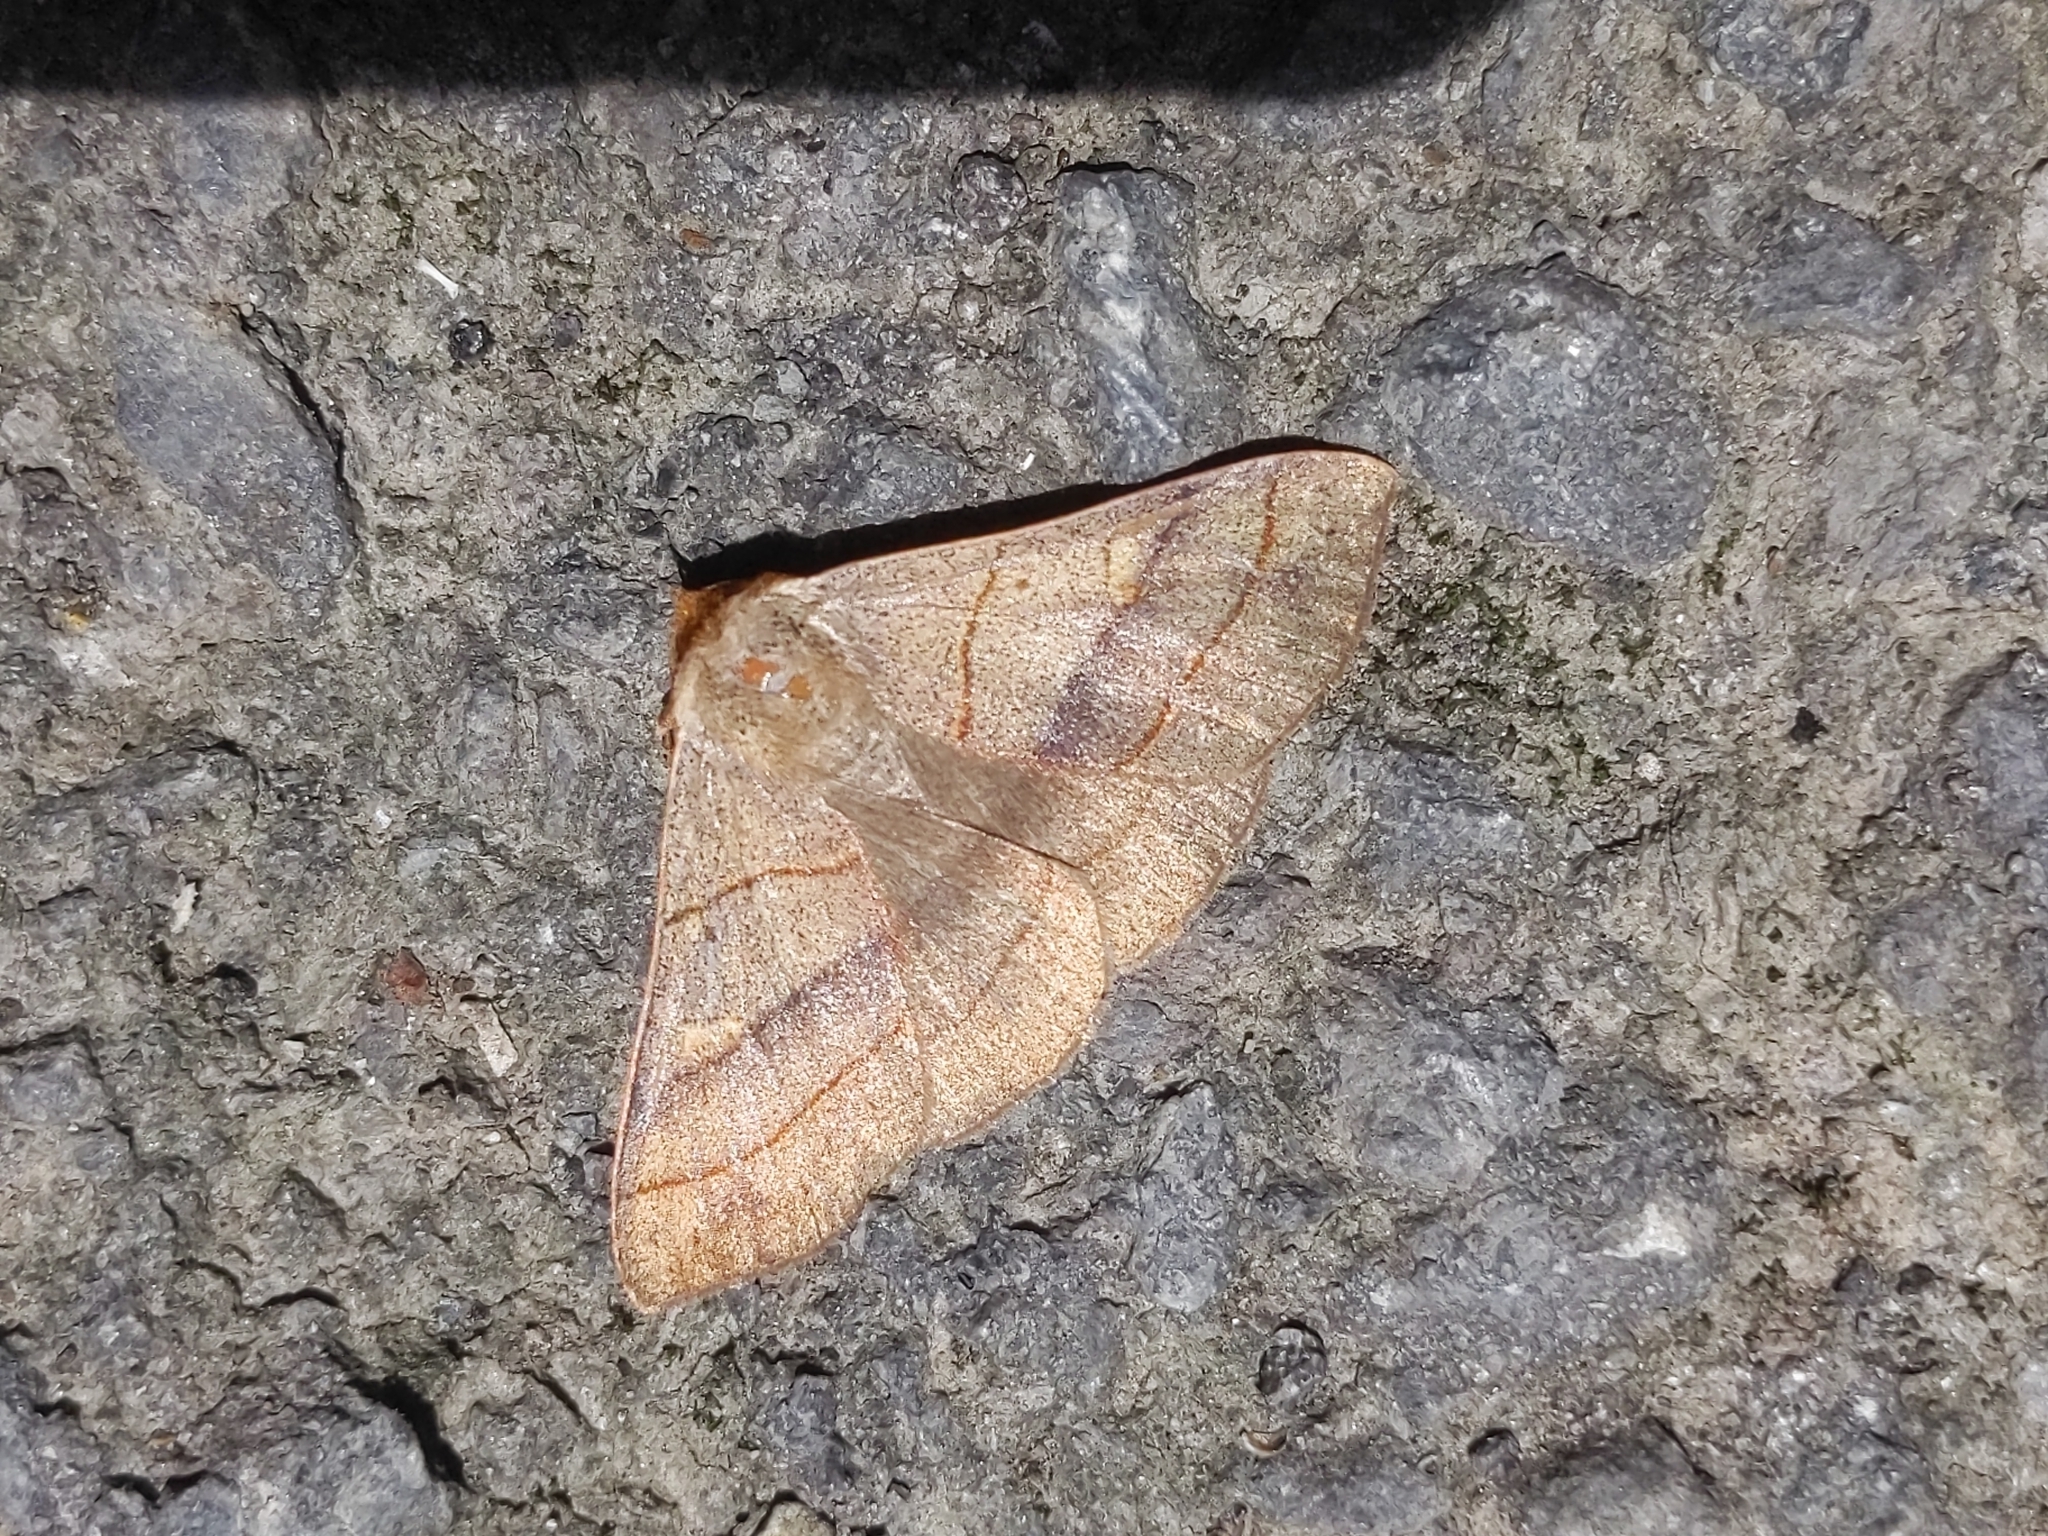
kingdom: Animalia
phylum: Arthropoda
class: Insecta
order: Lepidoptera
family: Erebidae
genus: Panopoda
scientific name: Panopoda rufimargo
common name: Red-lined panopoda moth
